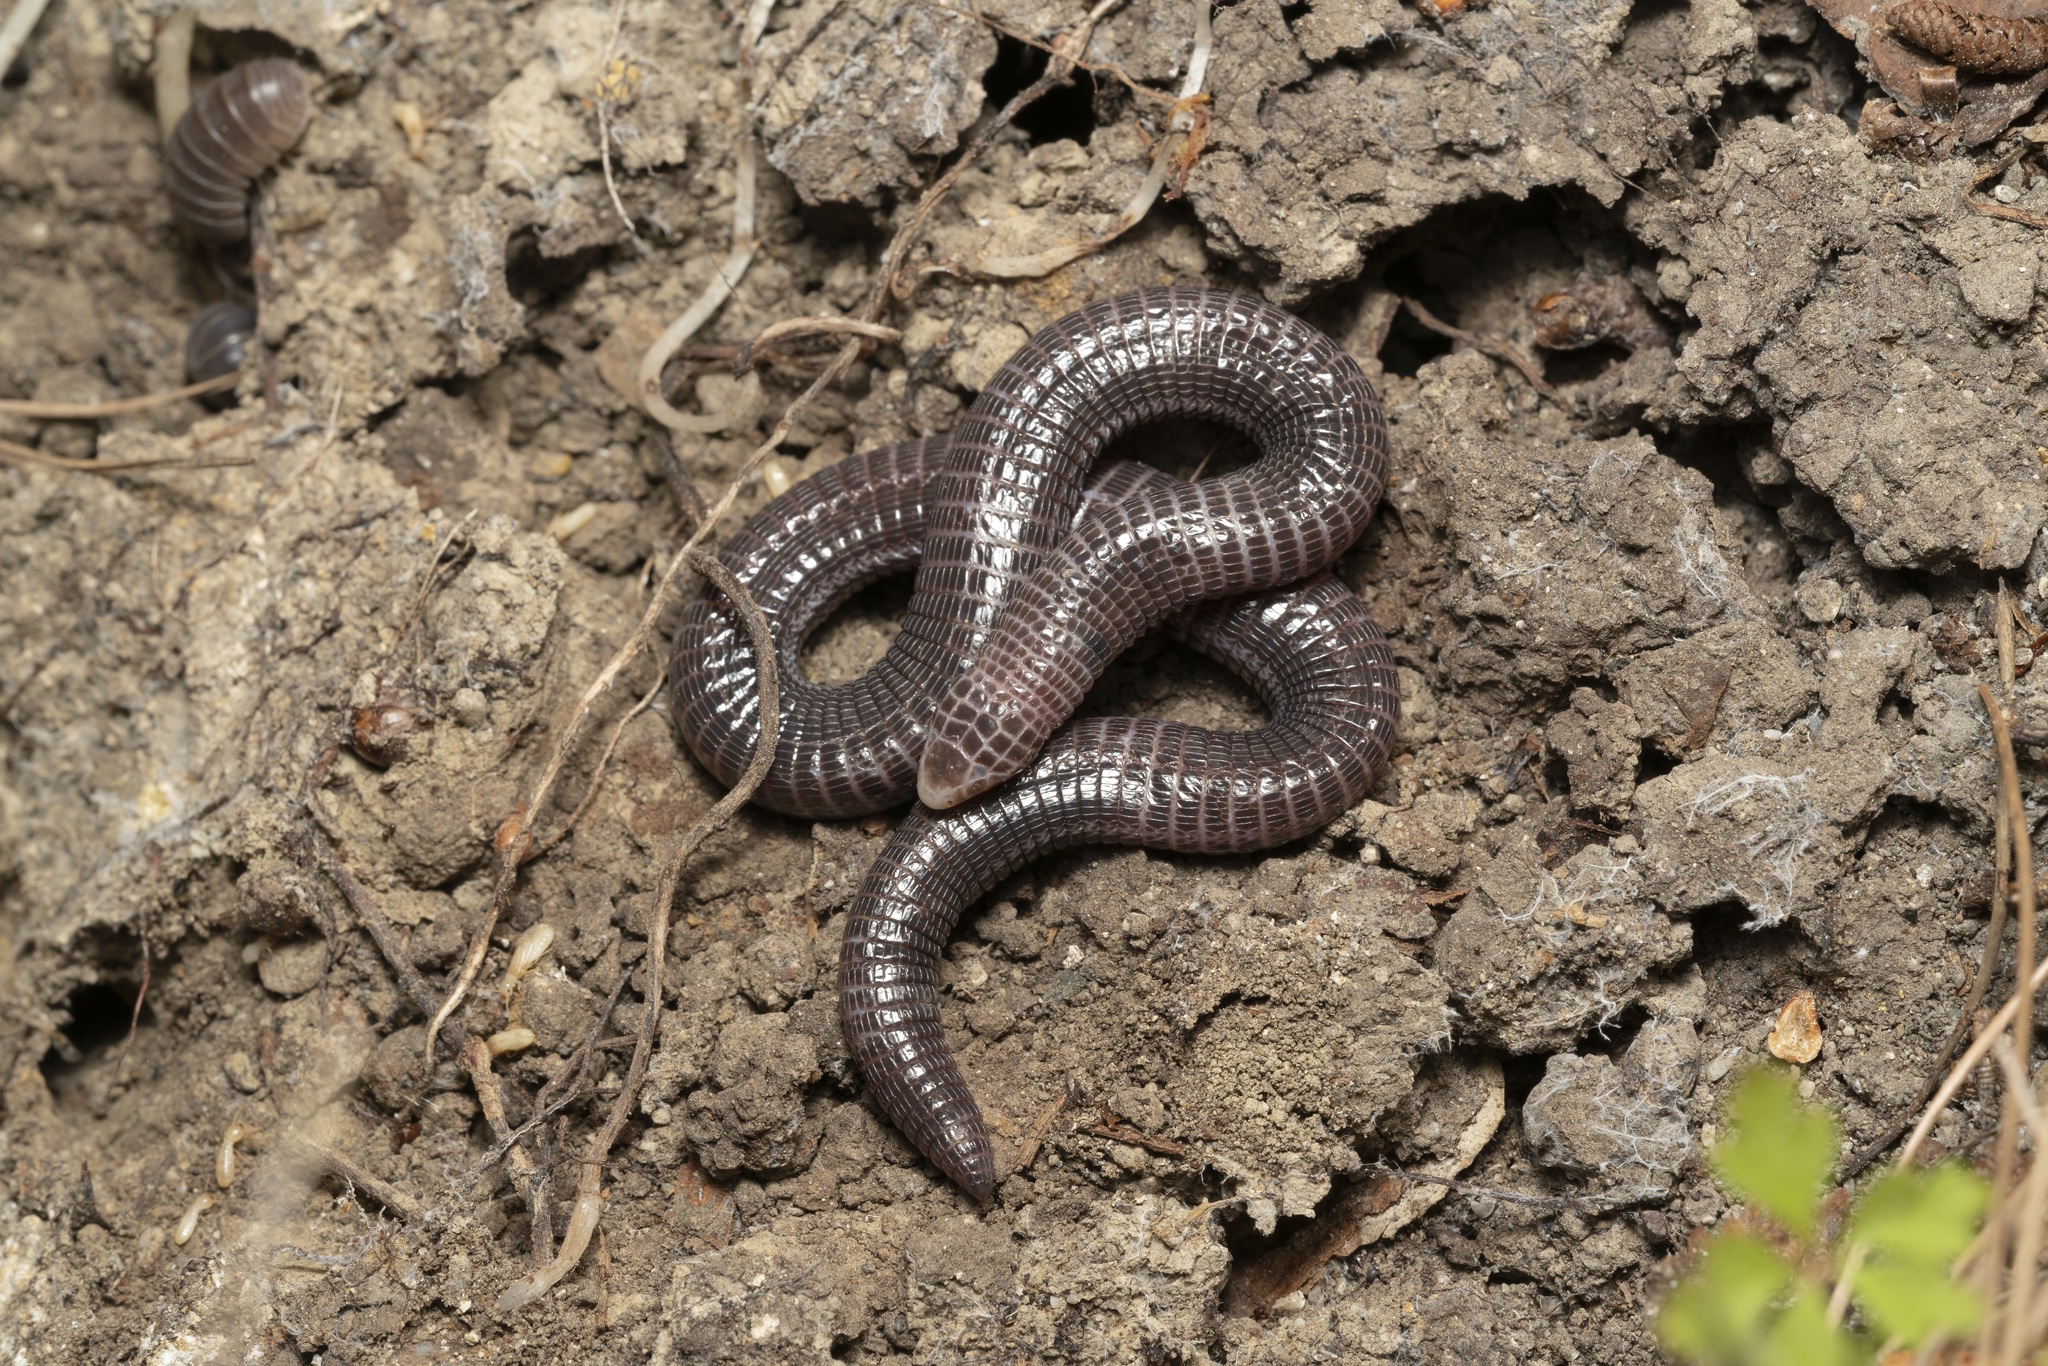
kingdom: Animalia
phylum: Chordata
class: Squamata
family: Blanidae
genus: Blanus
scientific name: Blanus strauchi
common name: Turkish worm lizard
